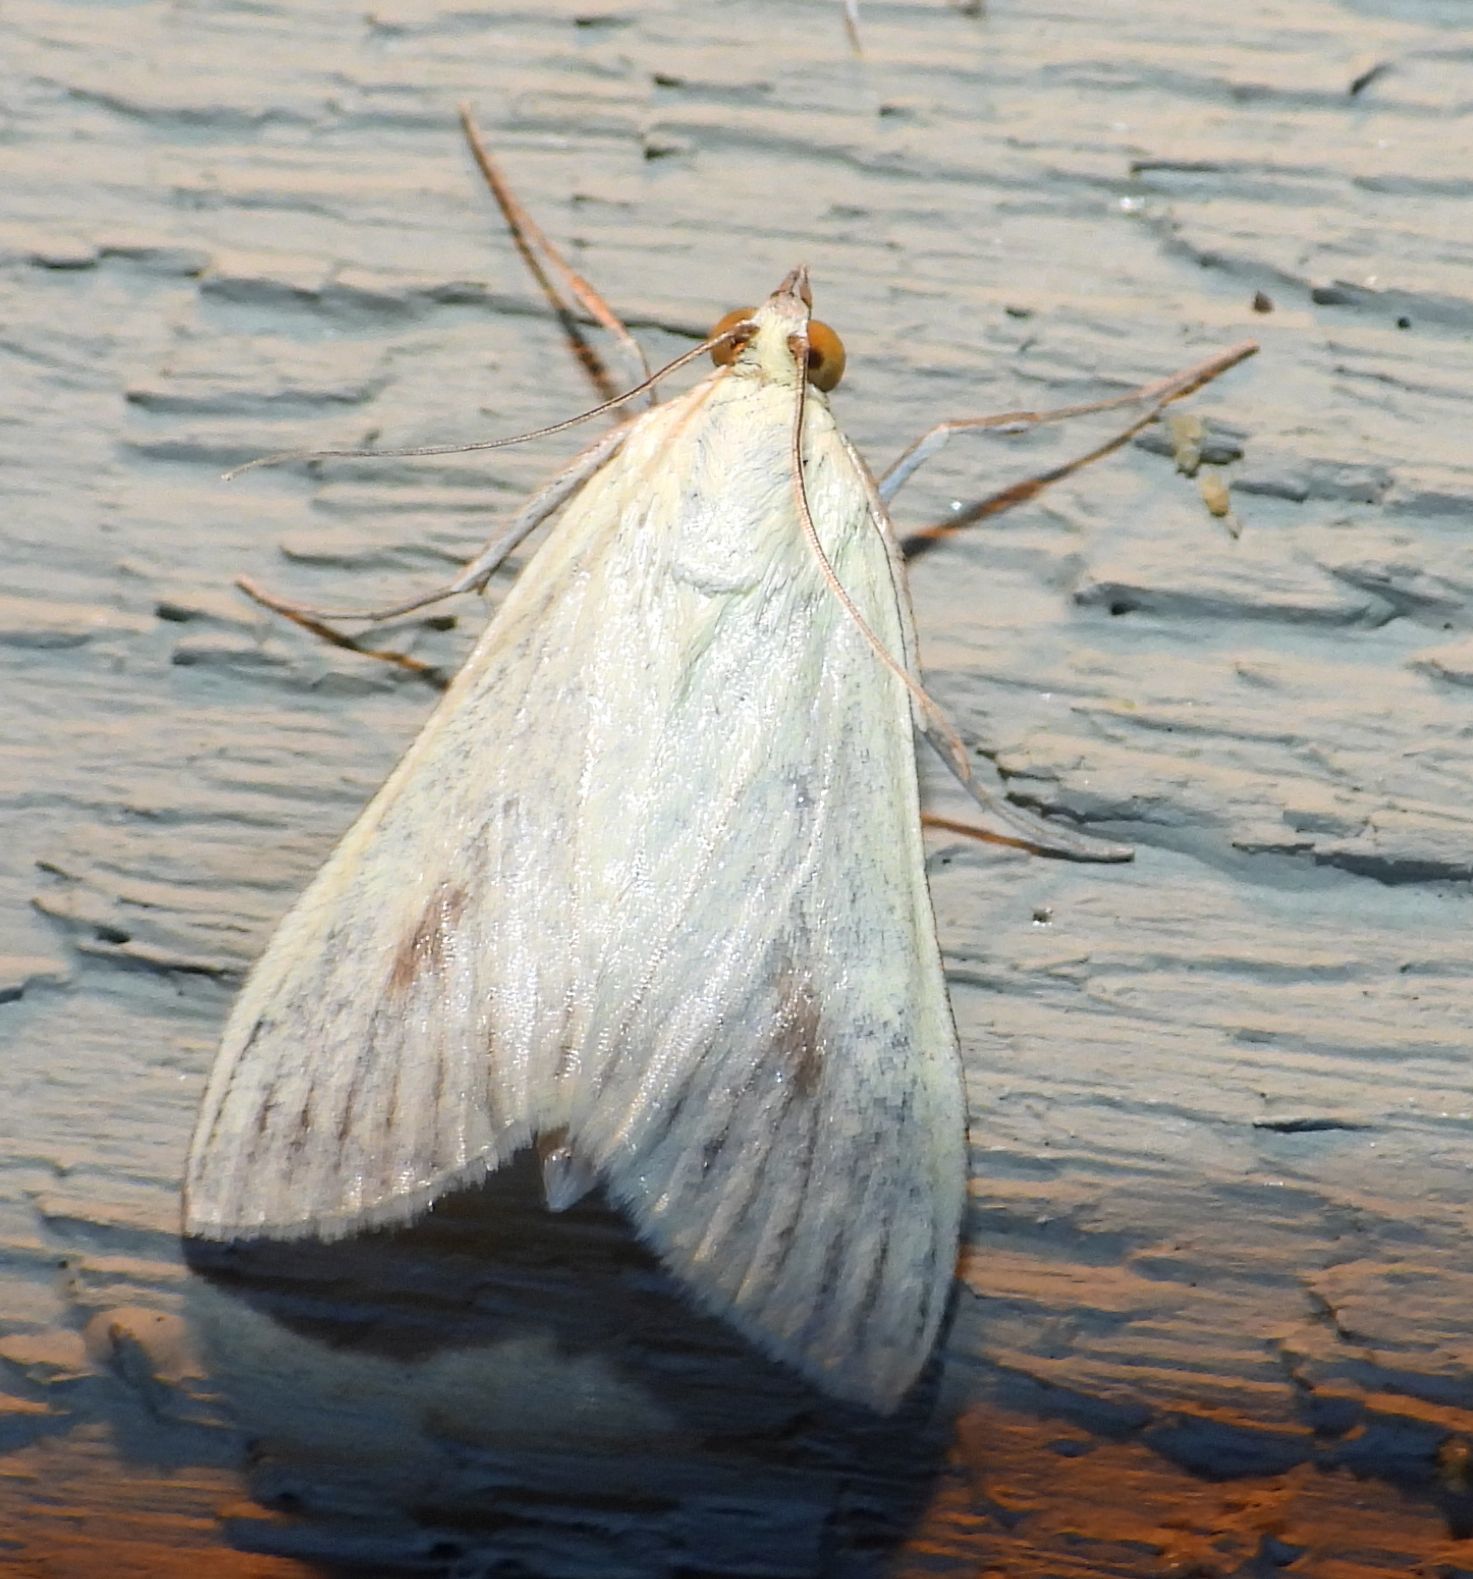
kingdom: Animalia
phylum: Arthropoda
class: Insecta
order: Lepidoptera
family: Crambidae
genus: Sitochroa
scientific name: Sitochroa palealis
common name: Greenish-yellow sitochroa moth
